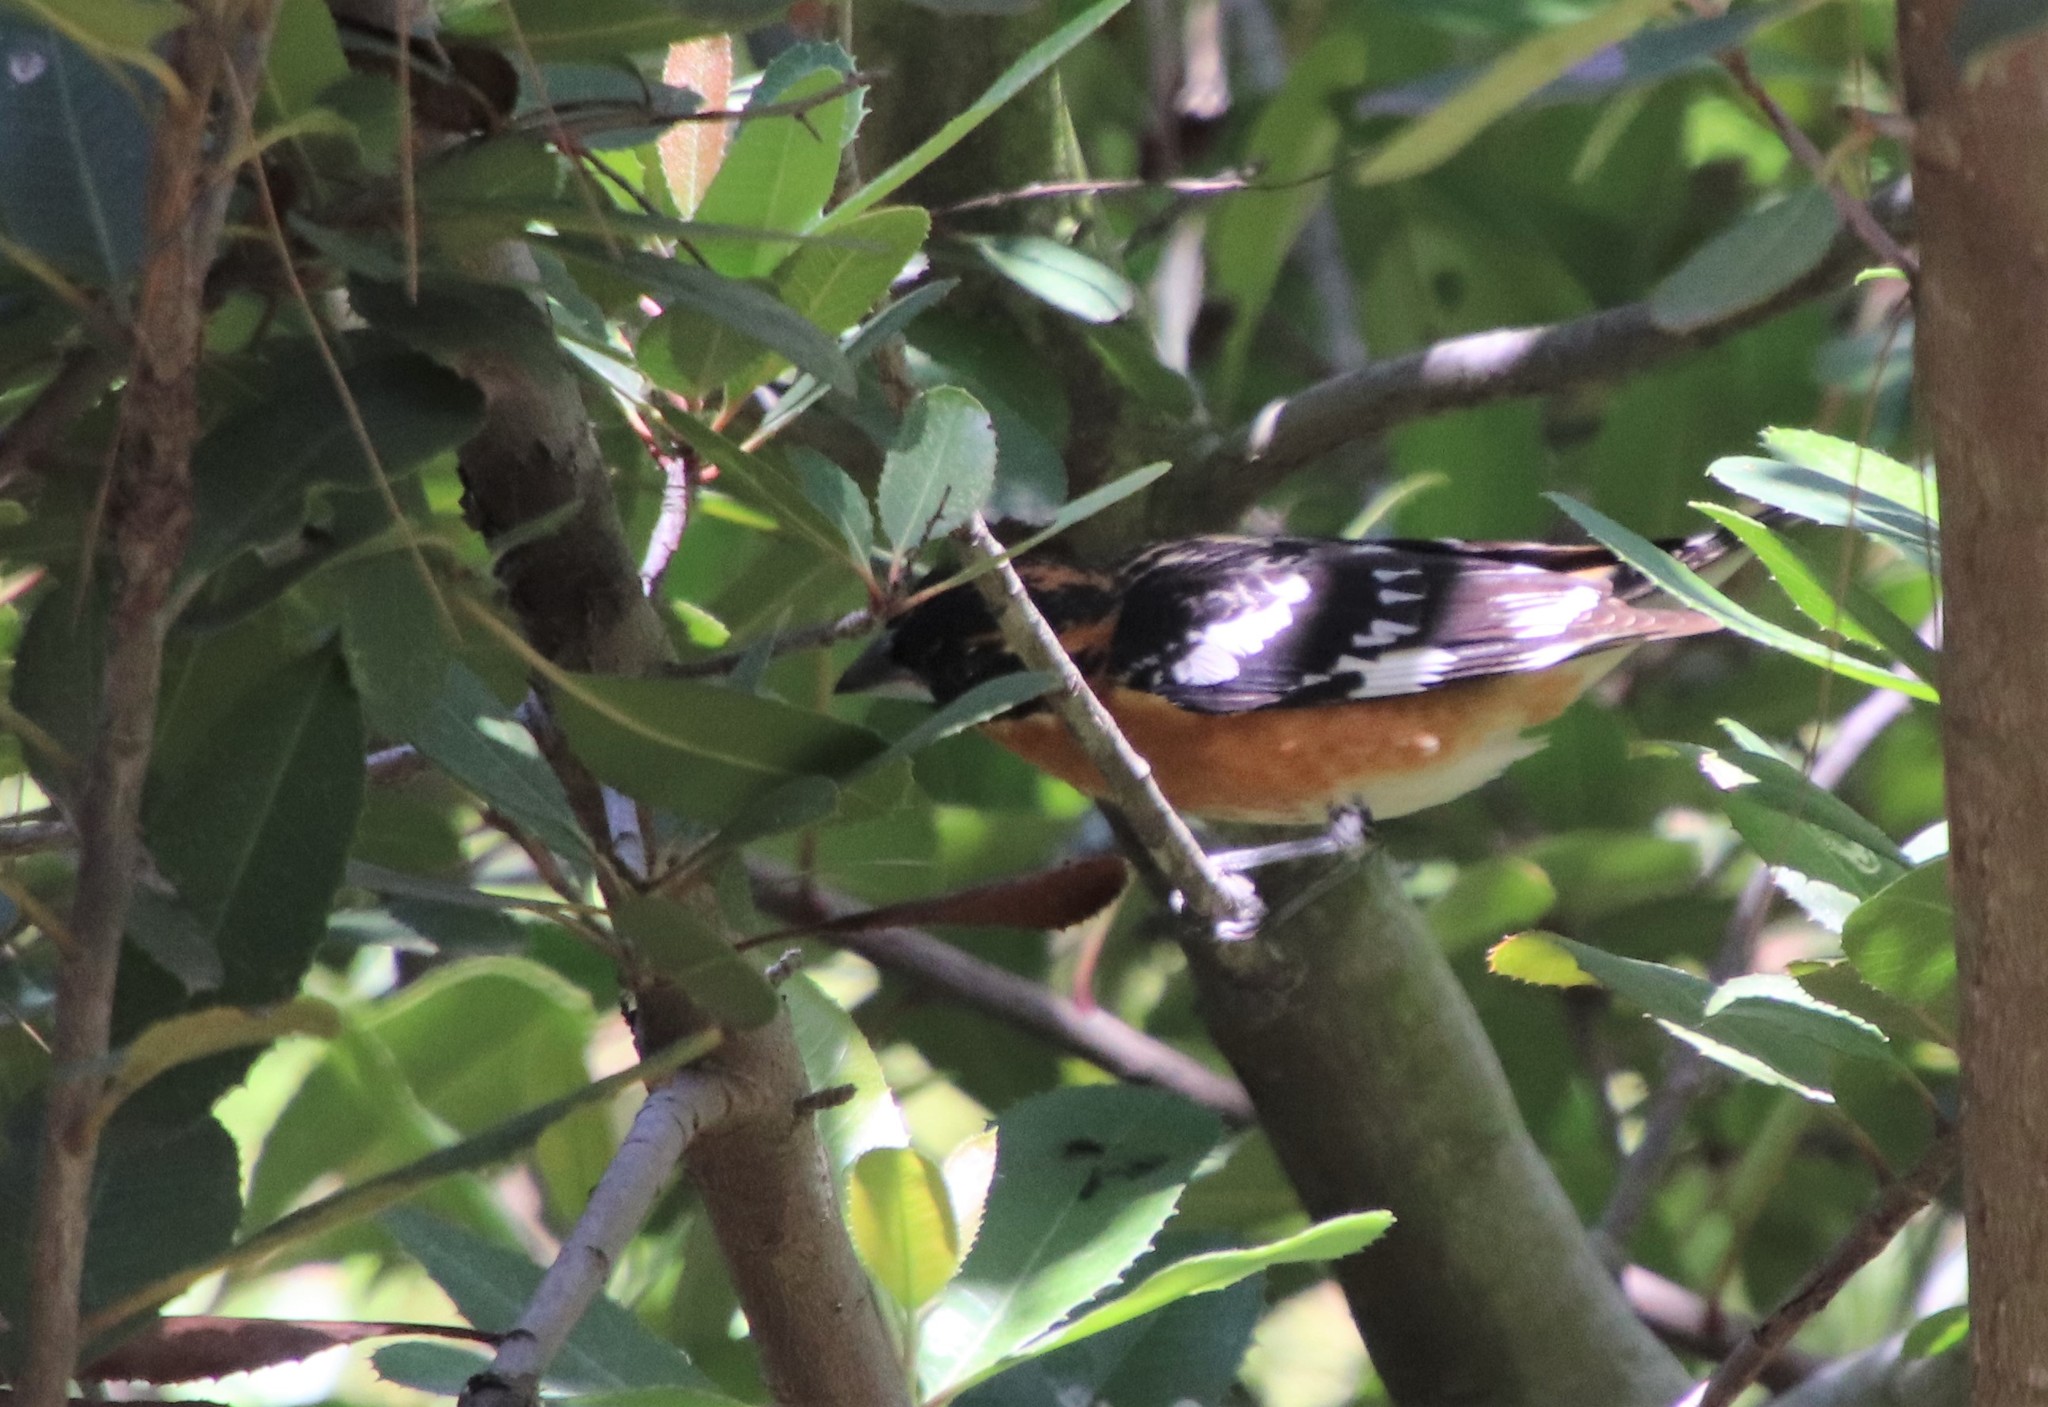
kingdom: Animalia
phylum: Chordata
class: Aves
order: Passeriformes
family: Cardinalidae
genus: Pheucticus
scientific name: Pheucticus melanocephalus
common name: Black-headed grosbeak
